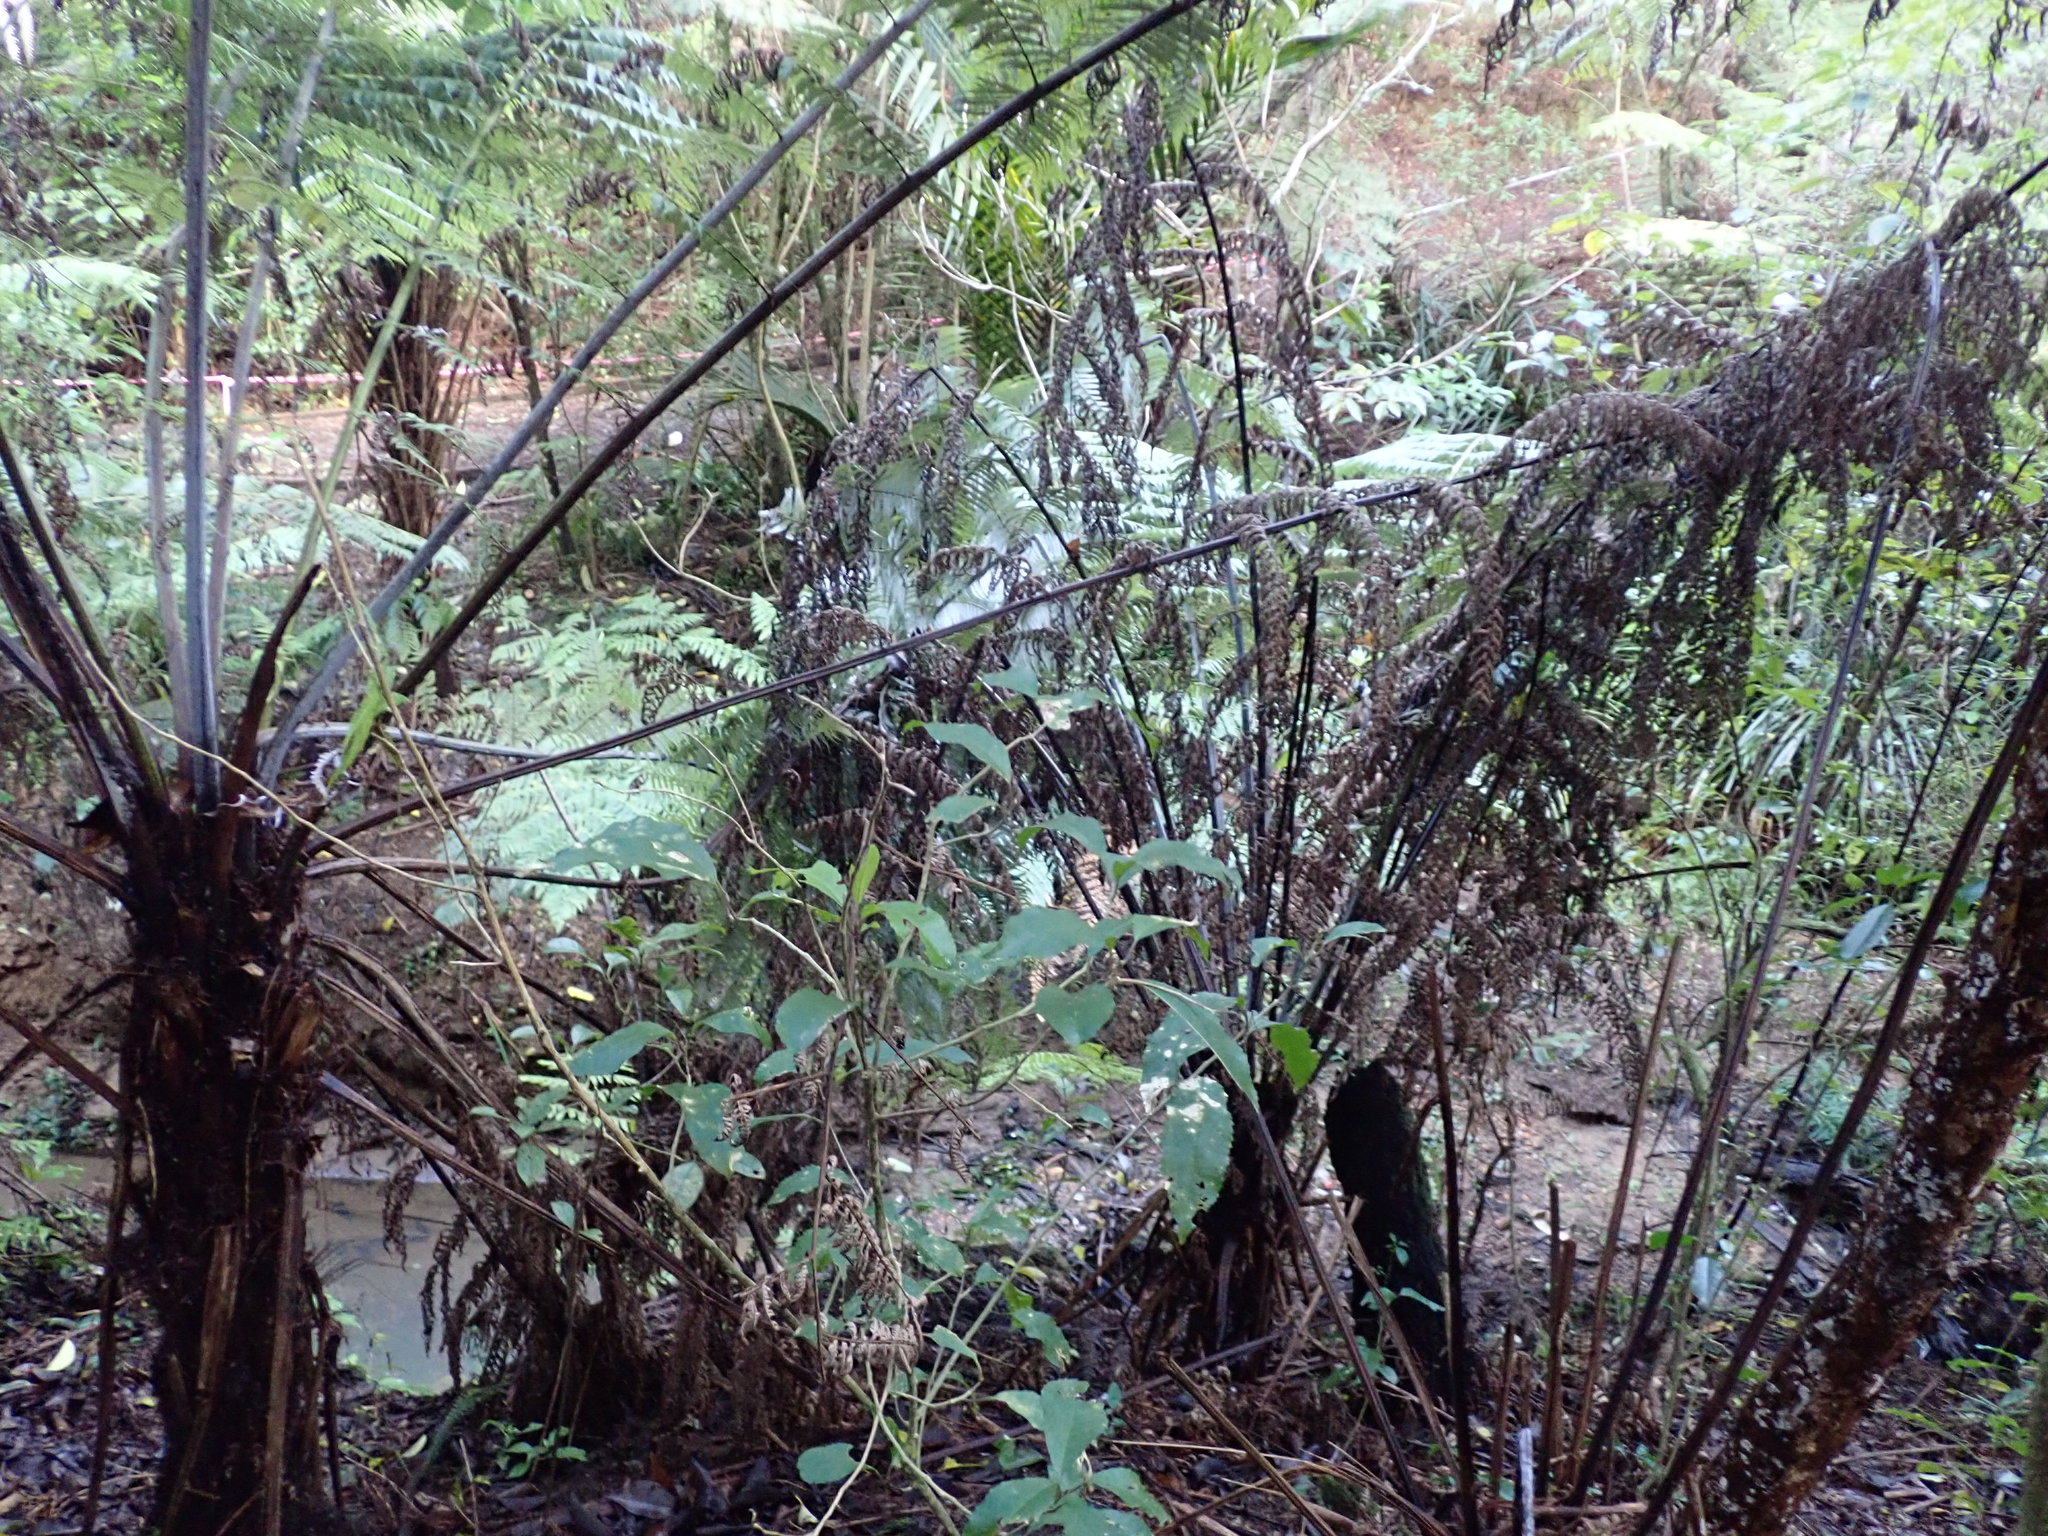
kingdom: Plantae
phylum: Tracheophyta
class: Magnoliopsida
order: Malpighiales
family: Violaceae
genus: Melicytus
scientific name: Melicytus ramiflorus
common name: Mahoe
